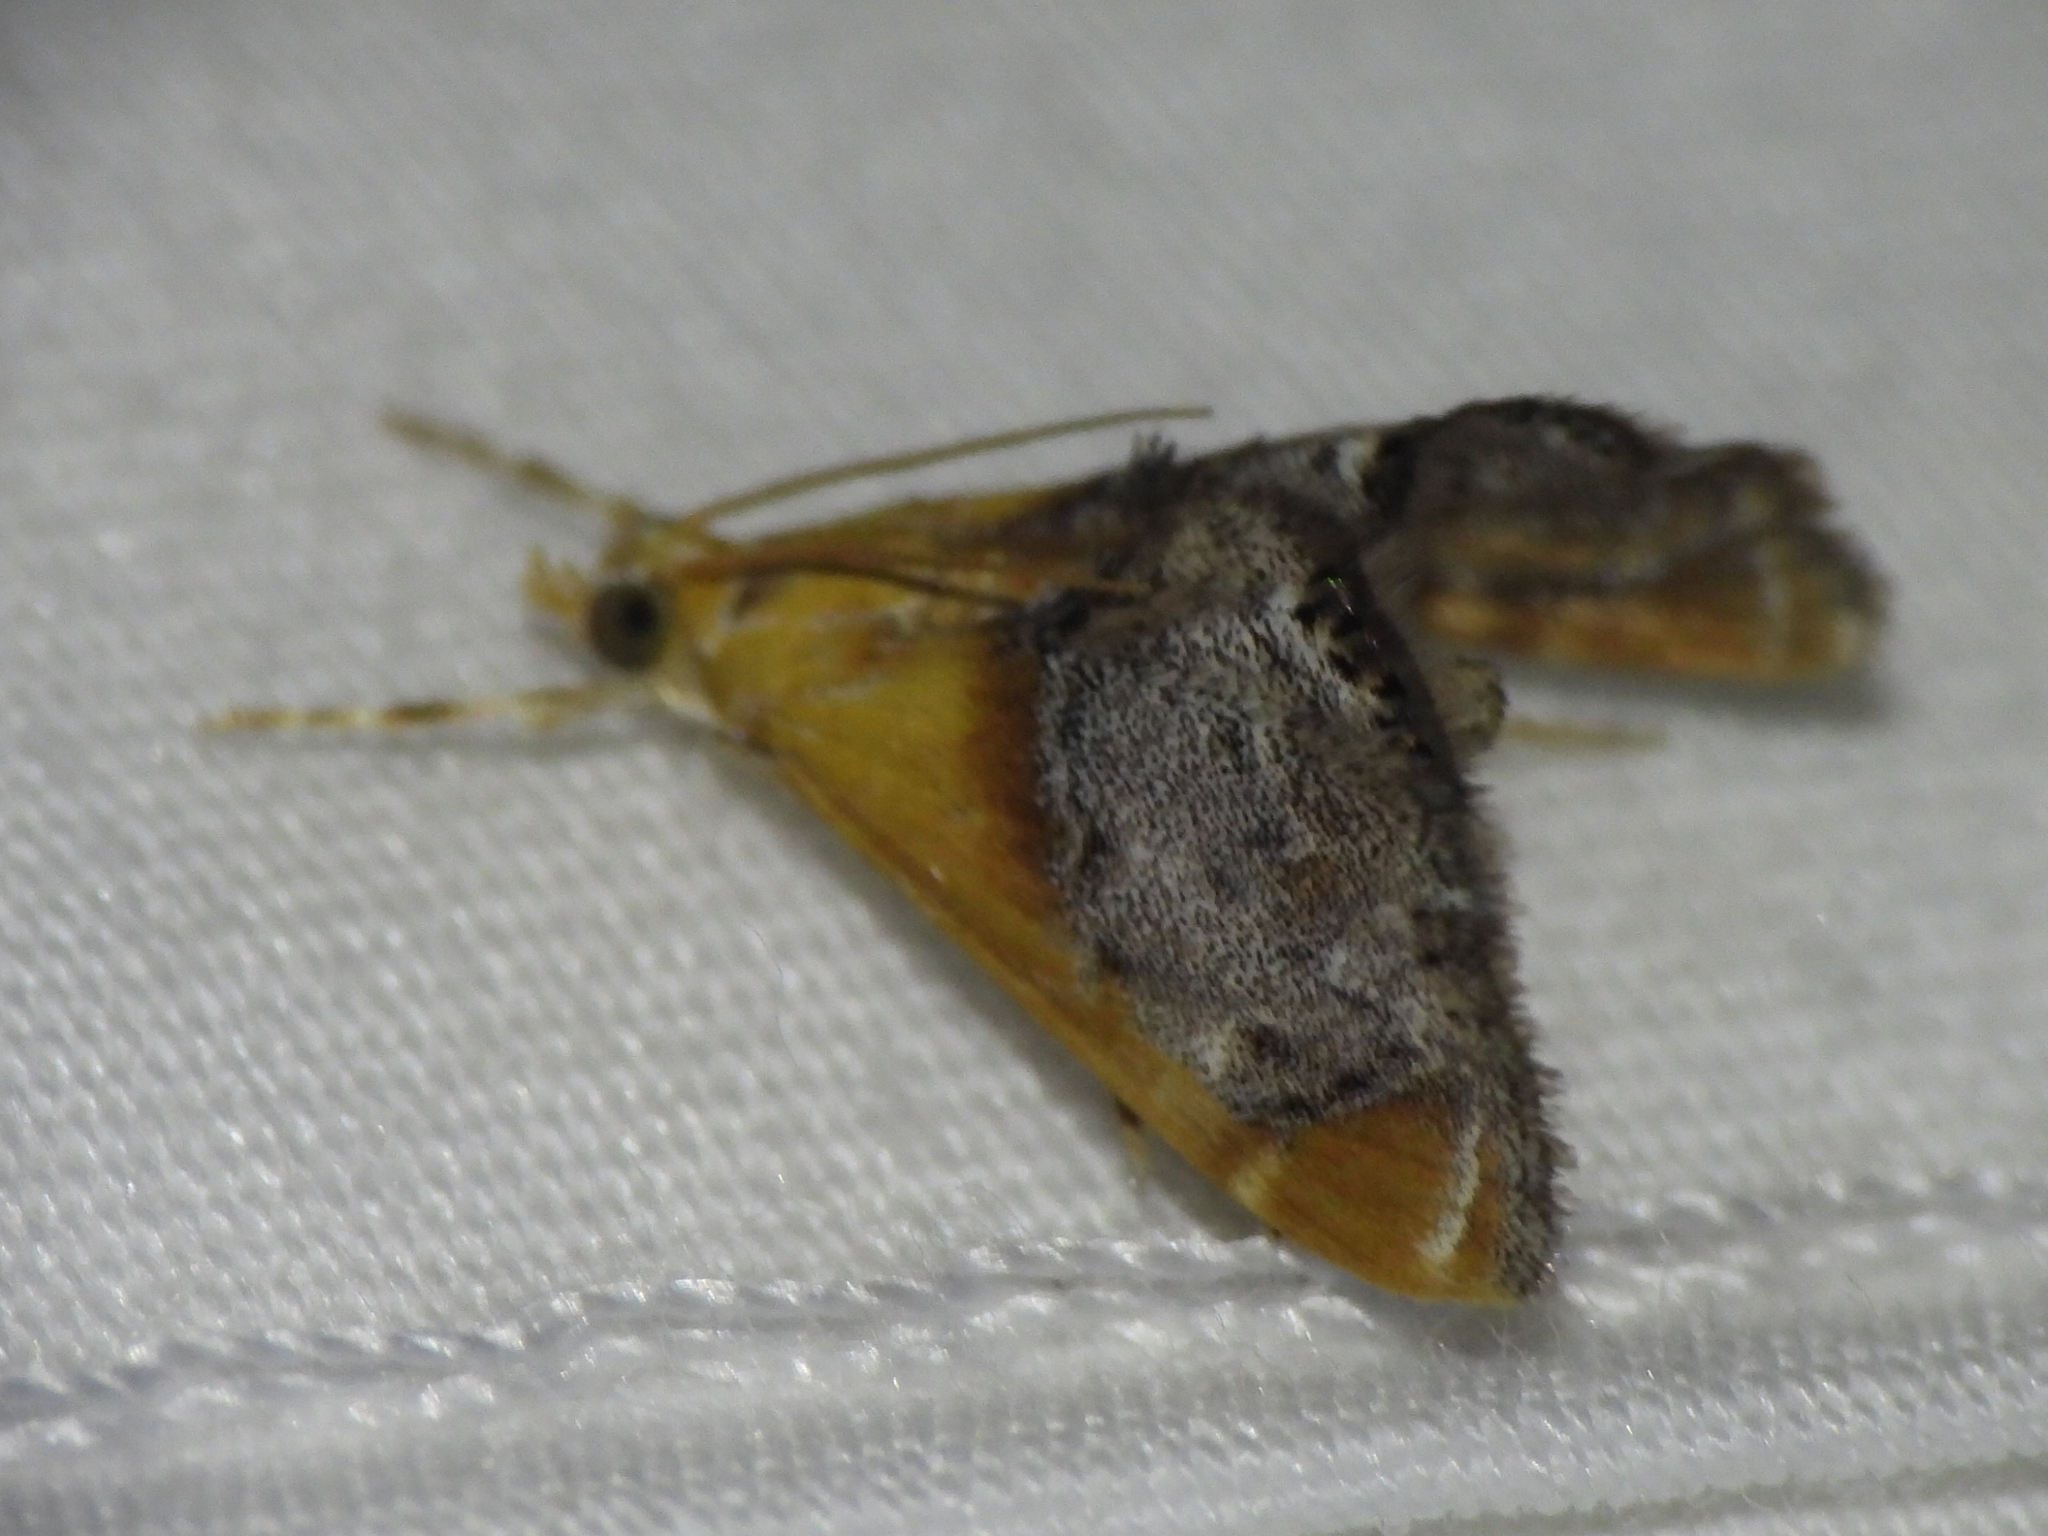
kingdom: Animalia
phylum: Arthropoda
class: Insecta
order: Lepidoptera
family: Crambidae
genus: Chalcoela
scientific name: Chalcoela iphitalis
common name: Sooty-winged chalcoela moth
